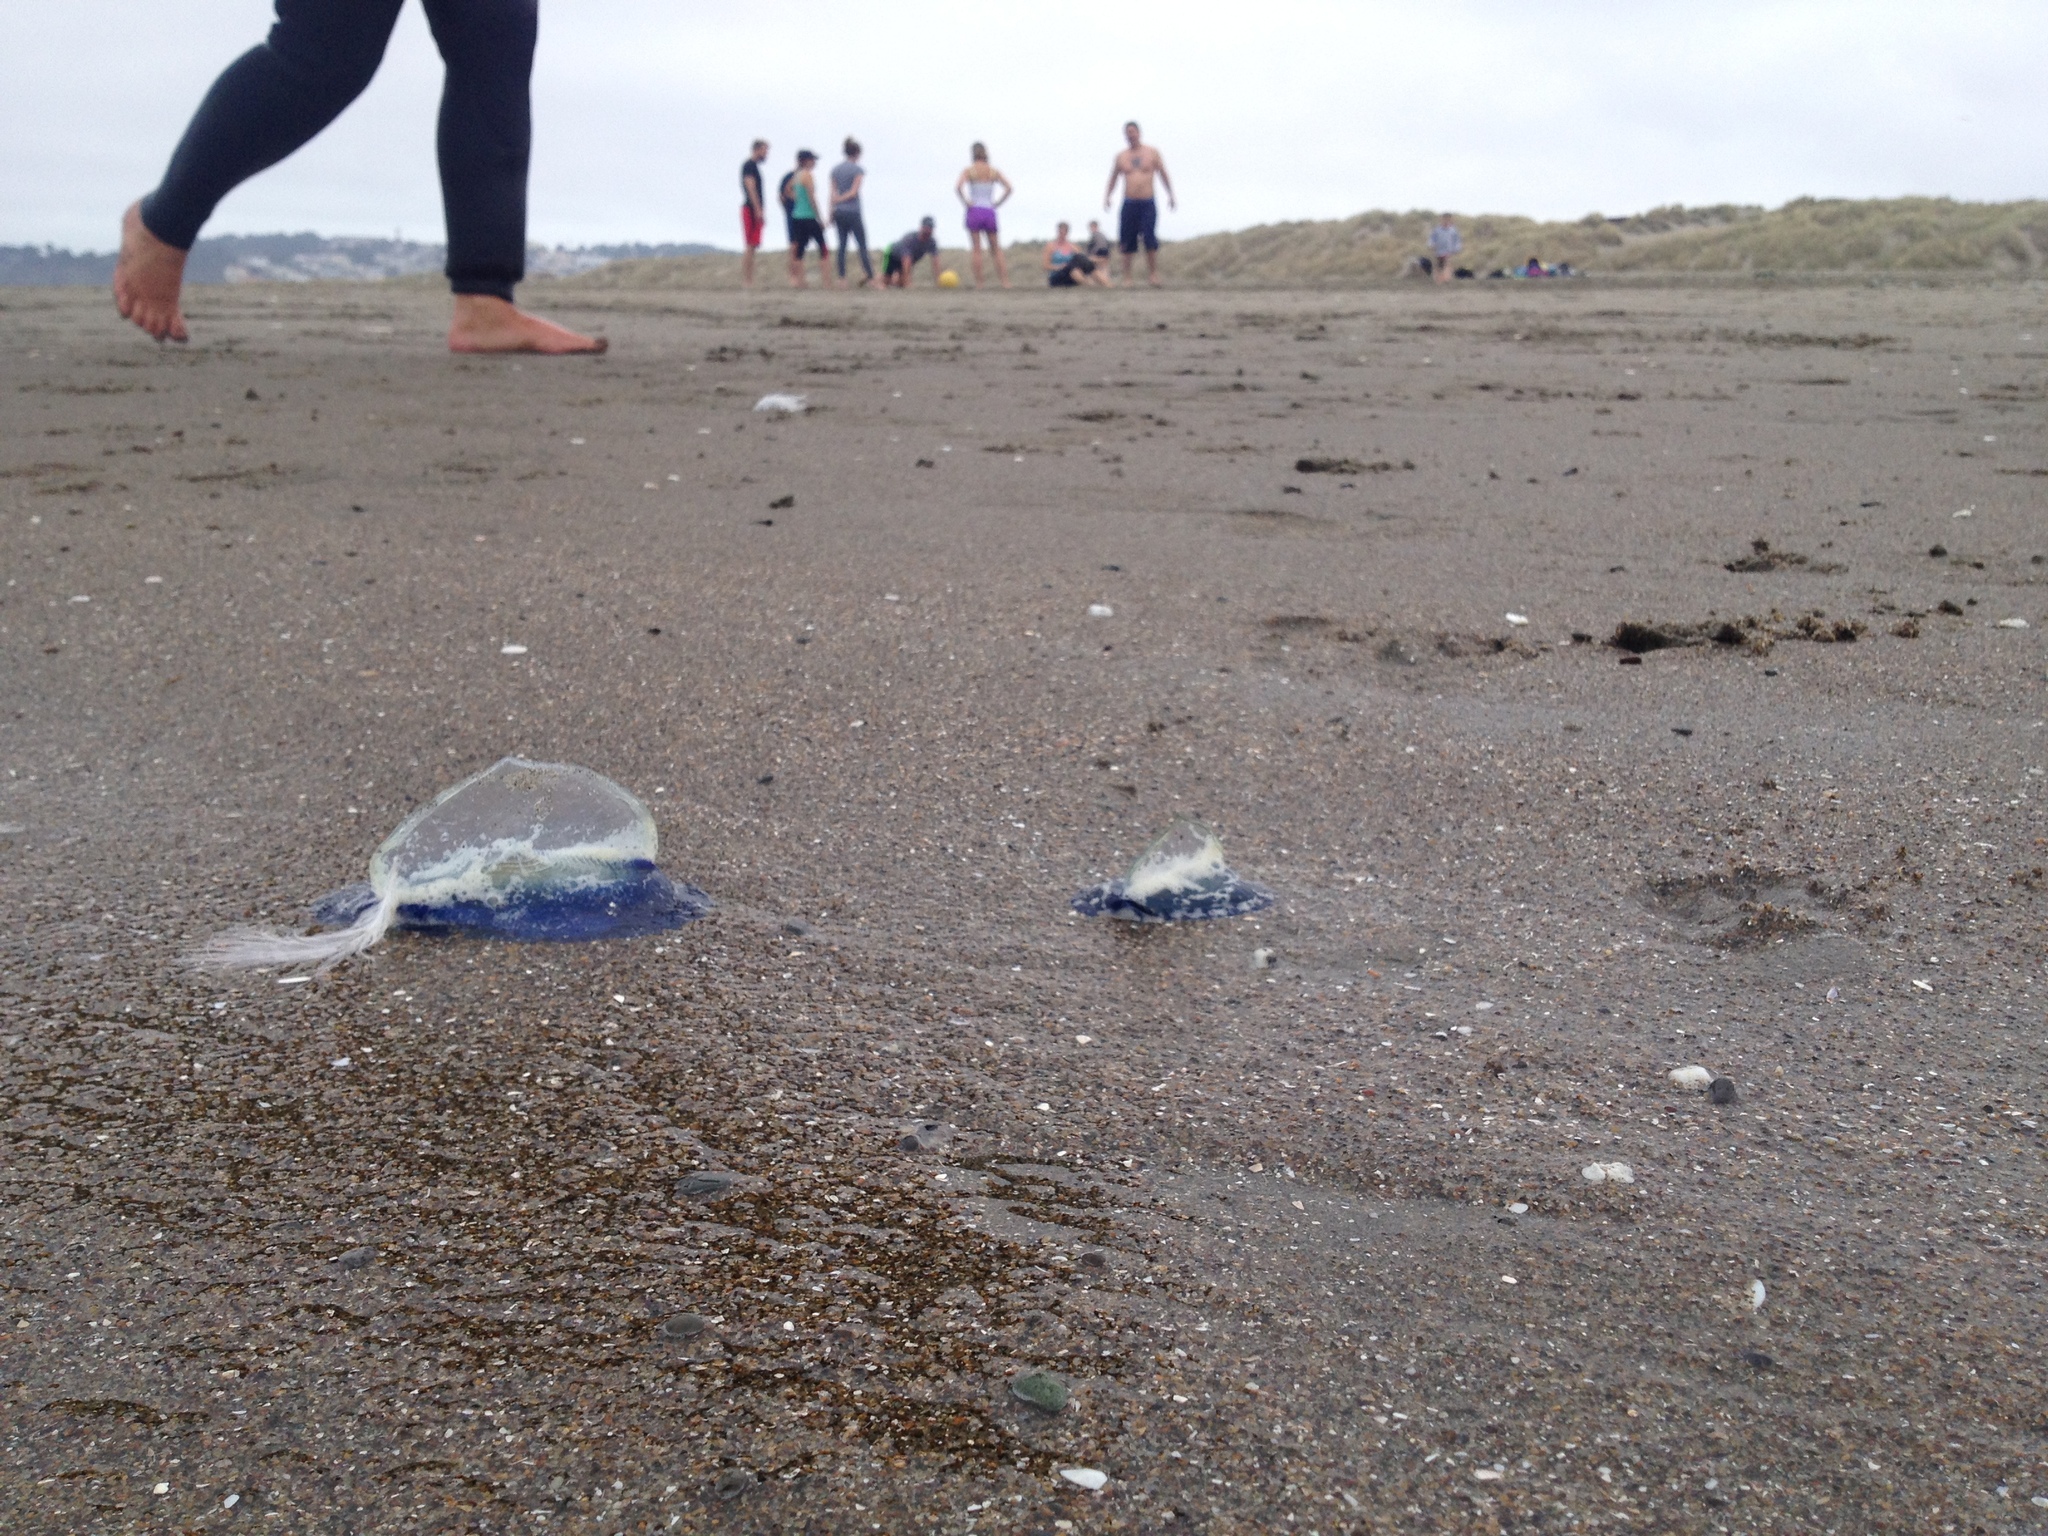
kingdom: Animalia
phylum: Cnidaria
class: Hydrozoa
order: Anthoathecata
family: Porpitidae
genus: Velella
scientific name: Velella velella
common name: By-the-wind-sailor
